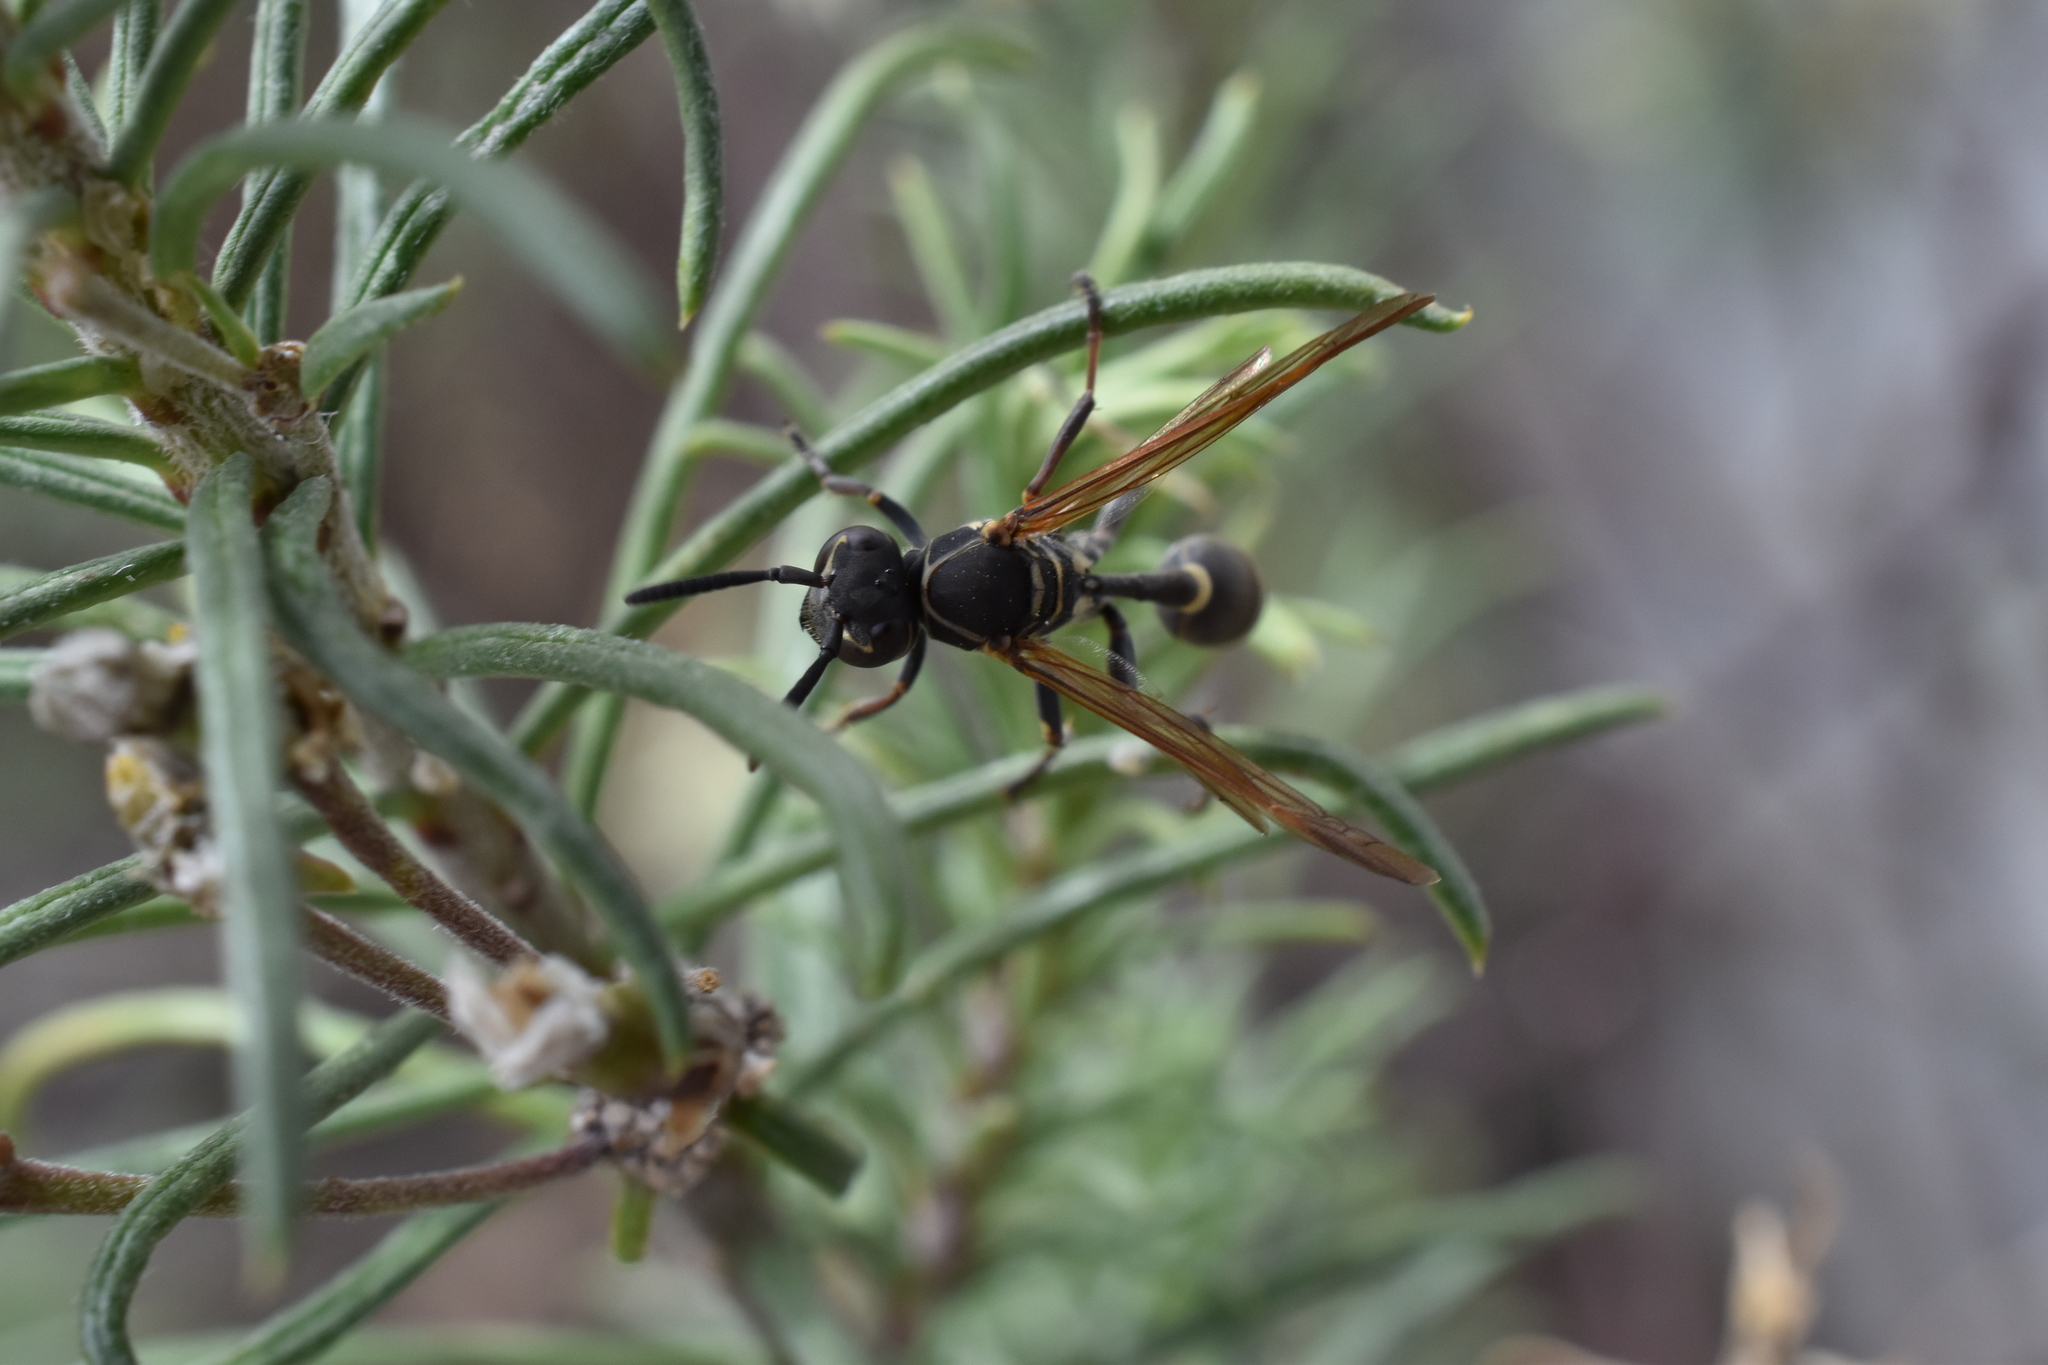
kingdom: Animalia
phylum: Arthropoda
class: Insecta
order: Hymenoptera
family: Eumenidae
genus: Polybia
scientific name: Polybia plebeja
